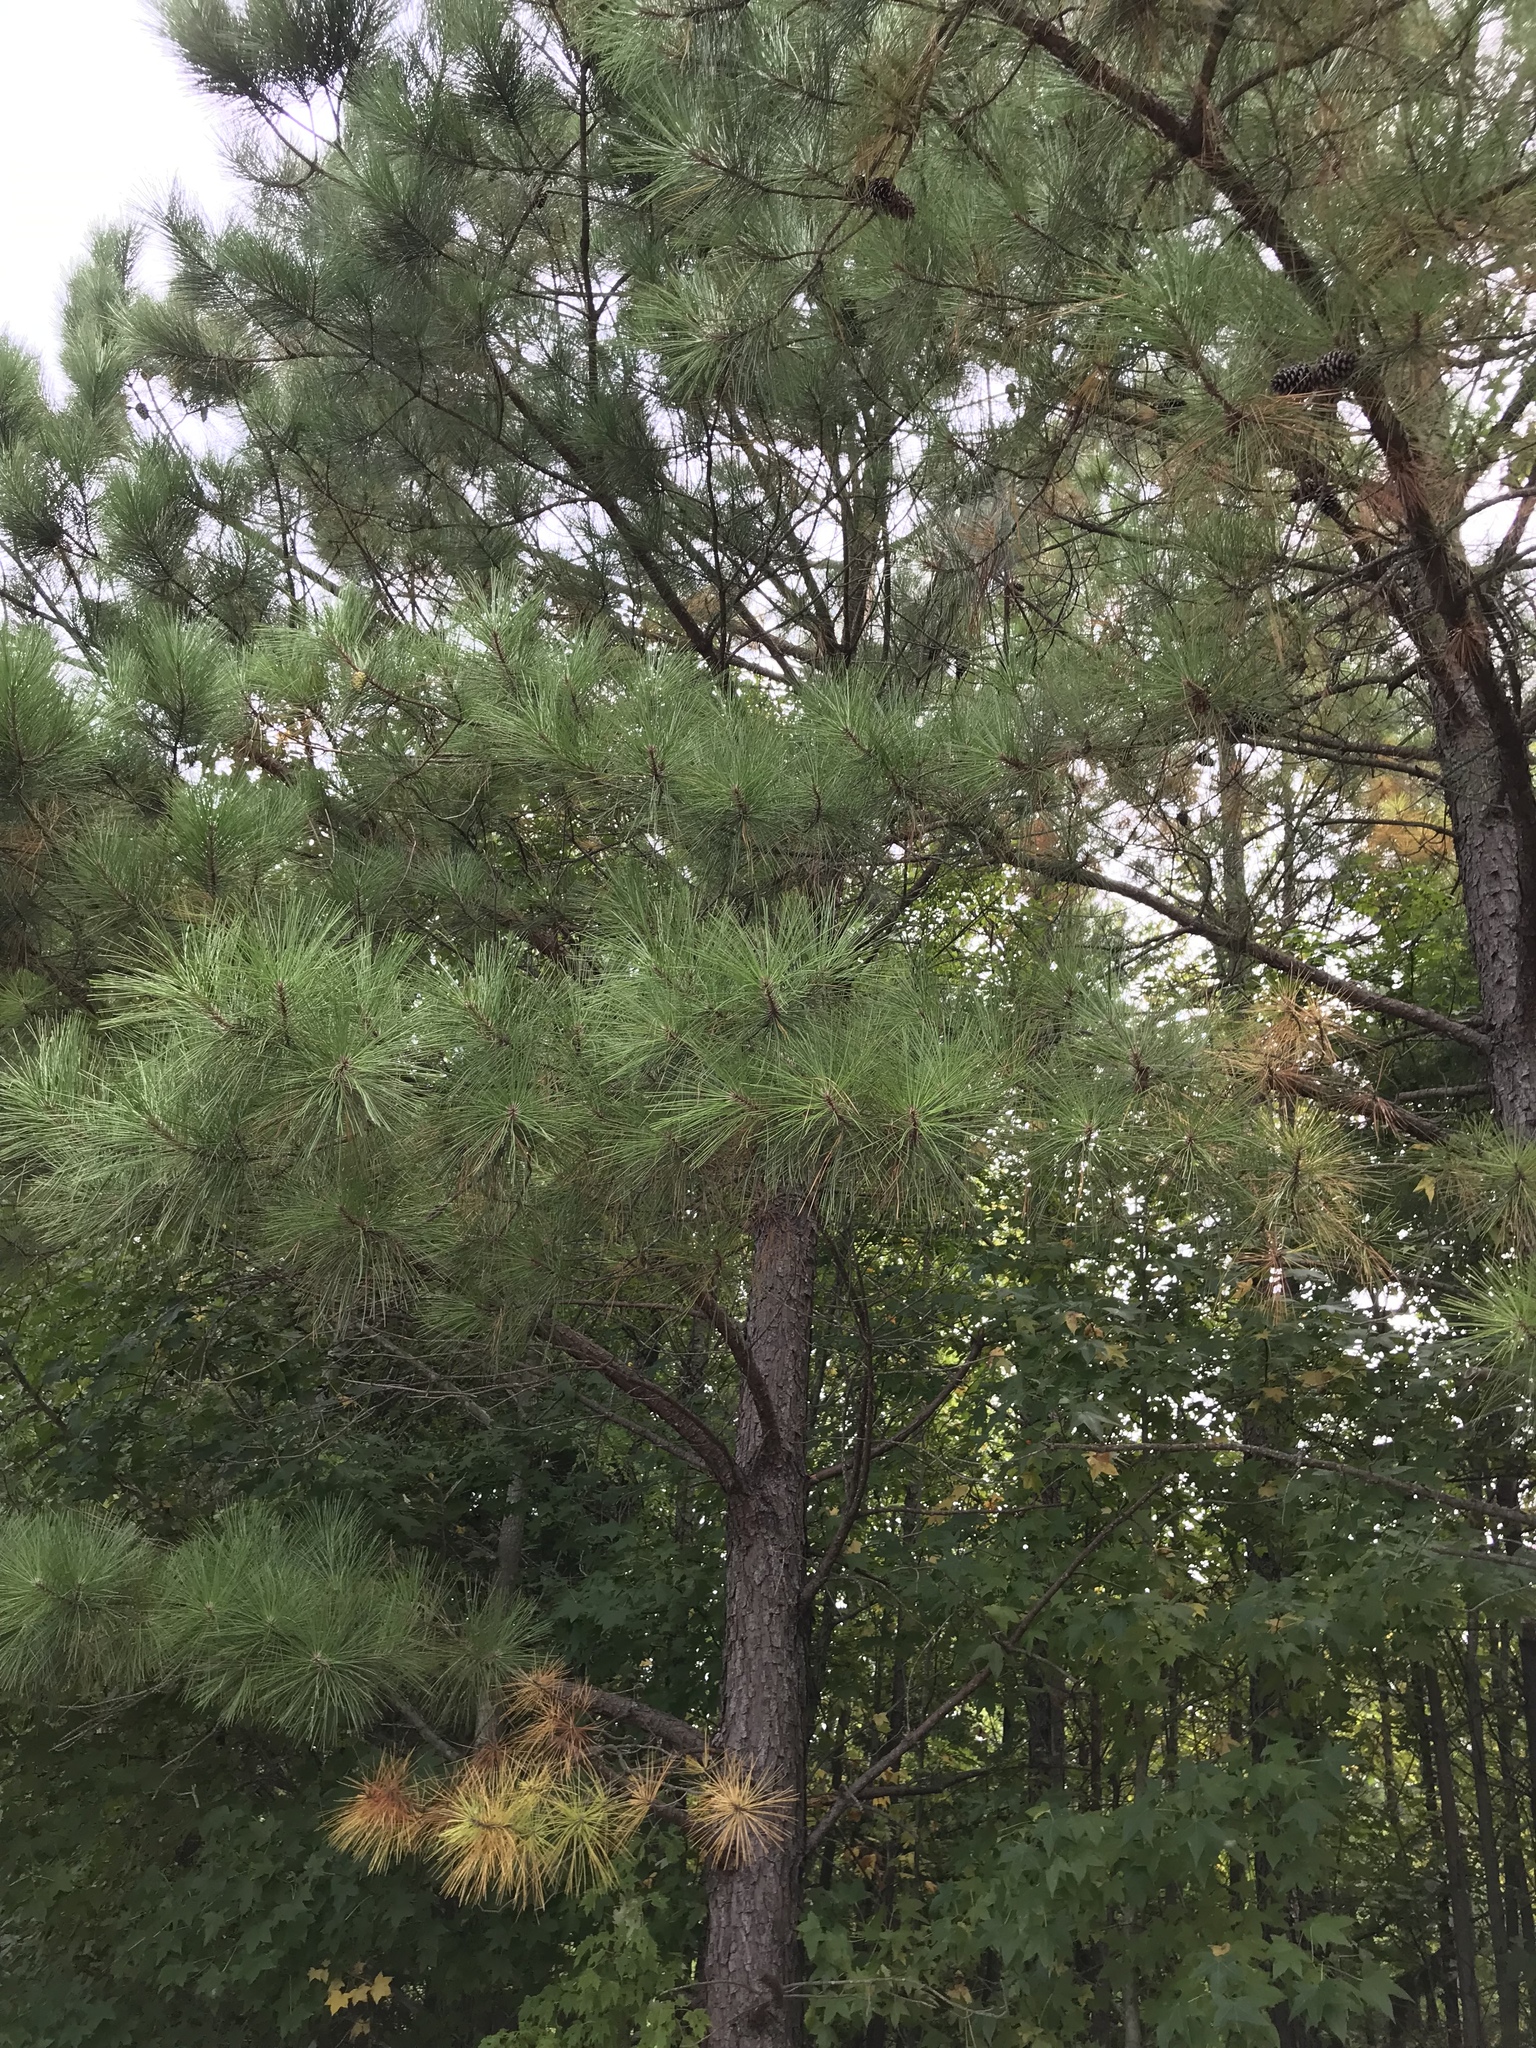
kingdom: Plantae
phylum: Tracheophyta
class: Pinopsida
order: Pinales
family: Pinaceae
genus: Pinus
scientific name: Pinus taeda
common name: Loblolly pine
